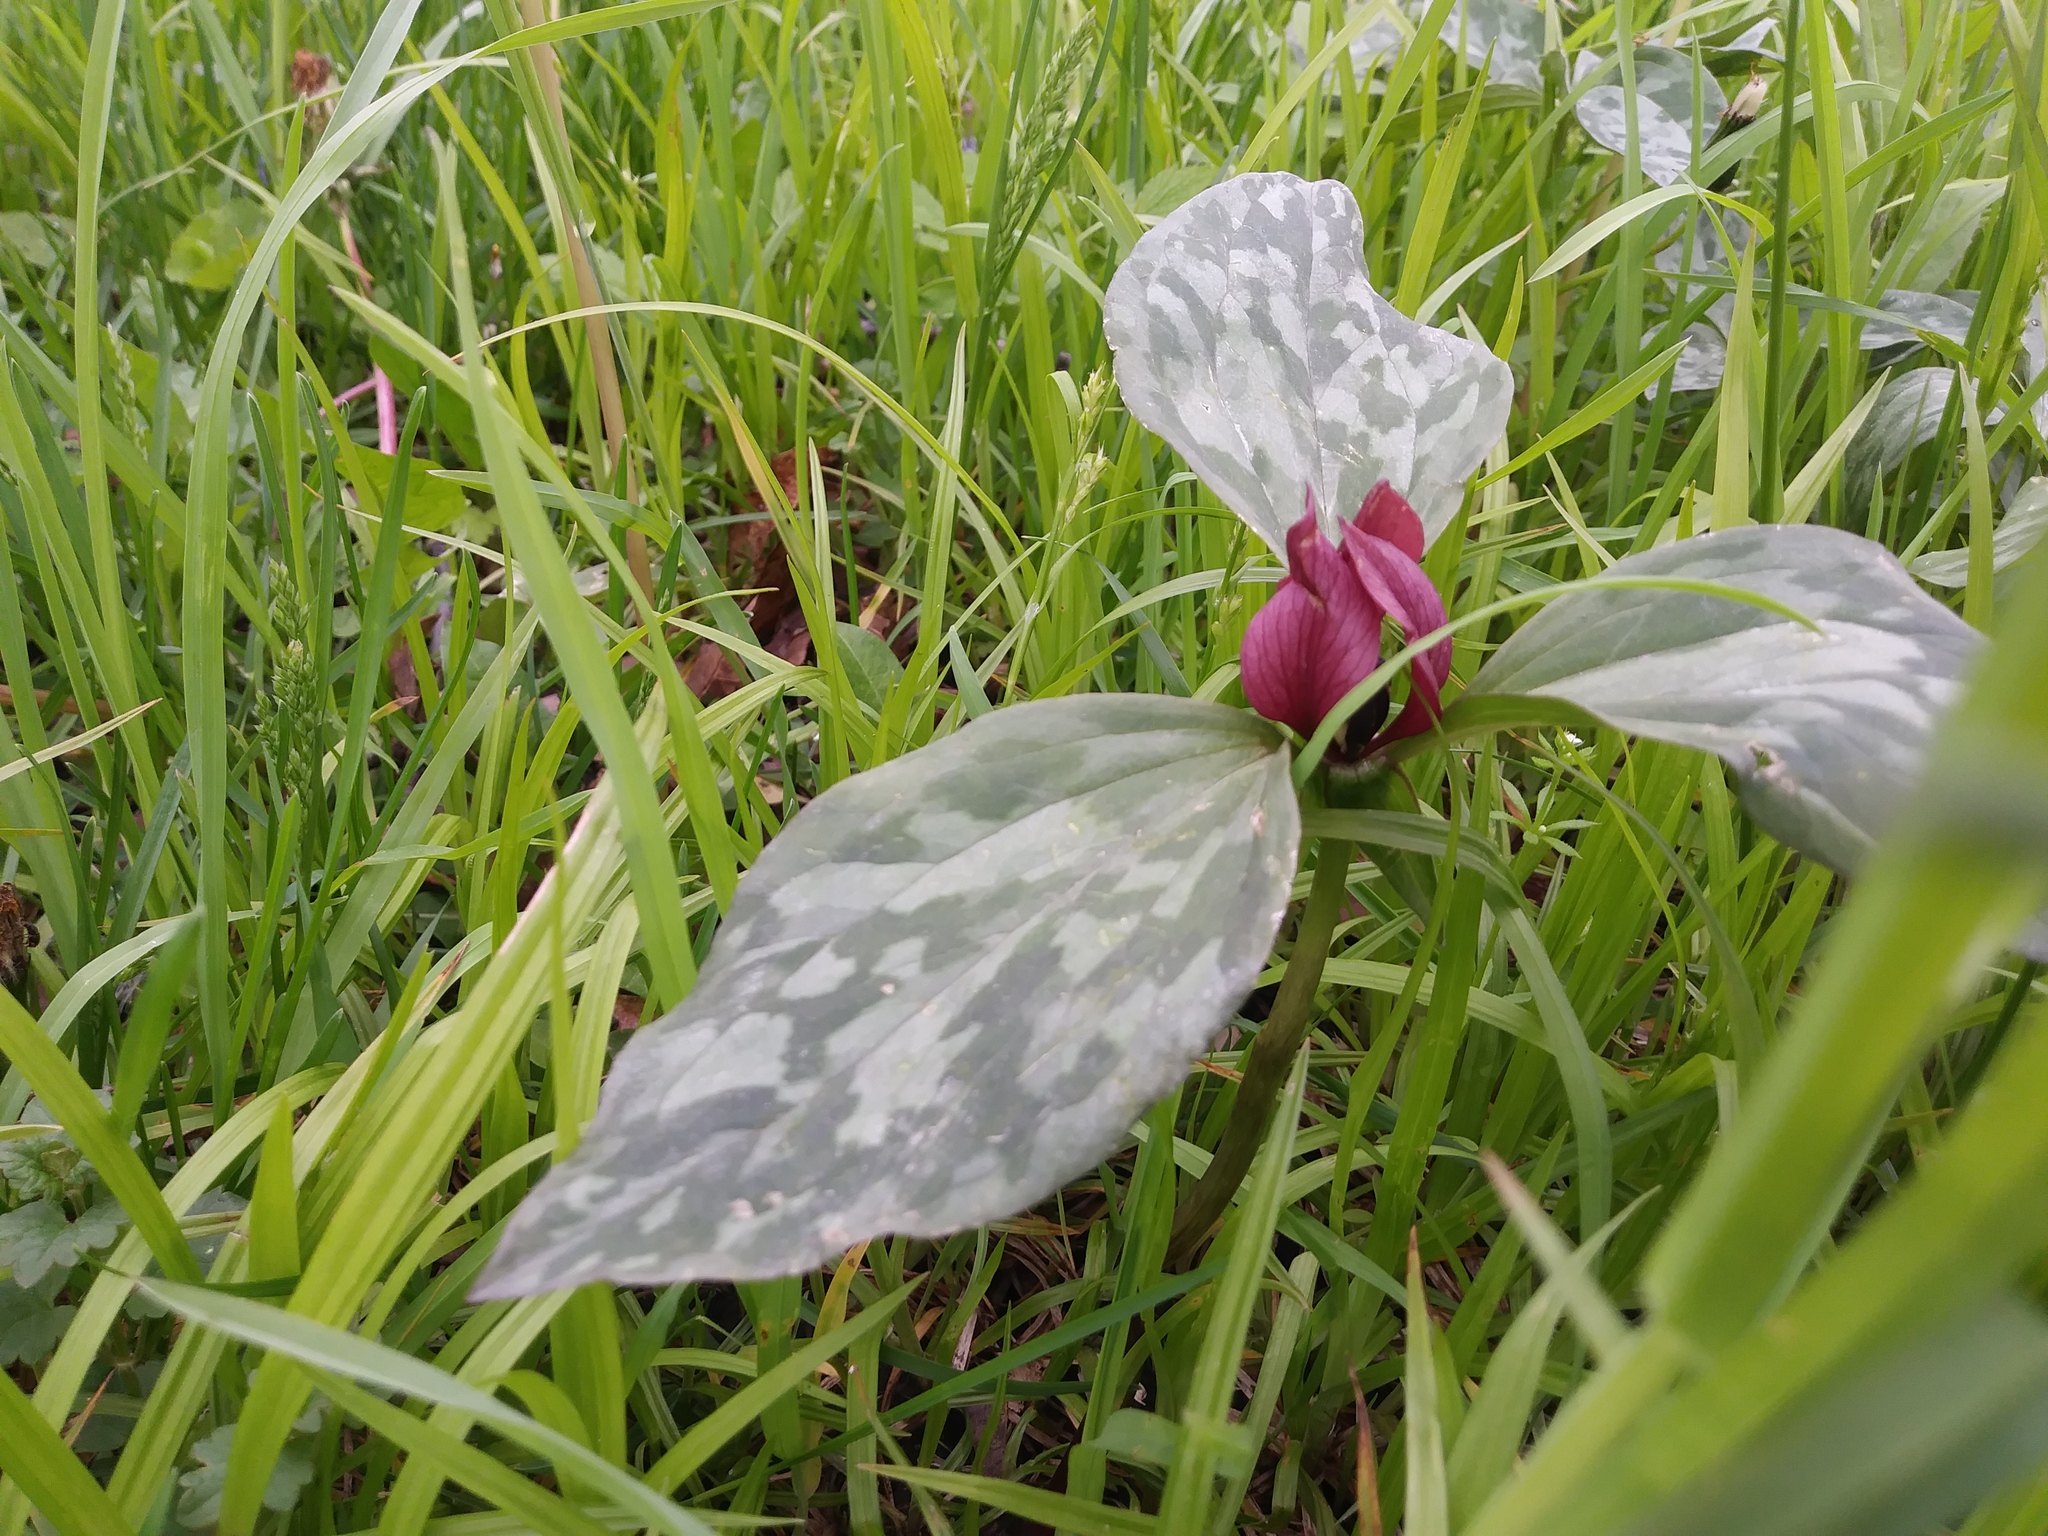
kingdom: Plantae
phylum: Tracheophyta
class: Liliopsida
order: Liliales
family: Melanthiaceae
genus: Trillium
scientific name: Trillium recurvatum
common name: Bloody butcher
